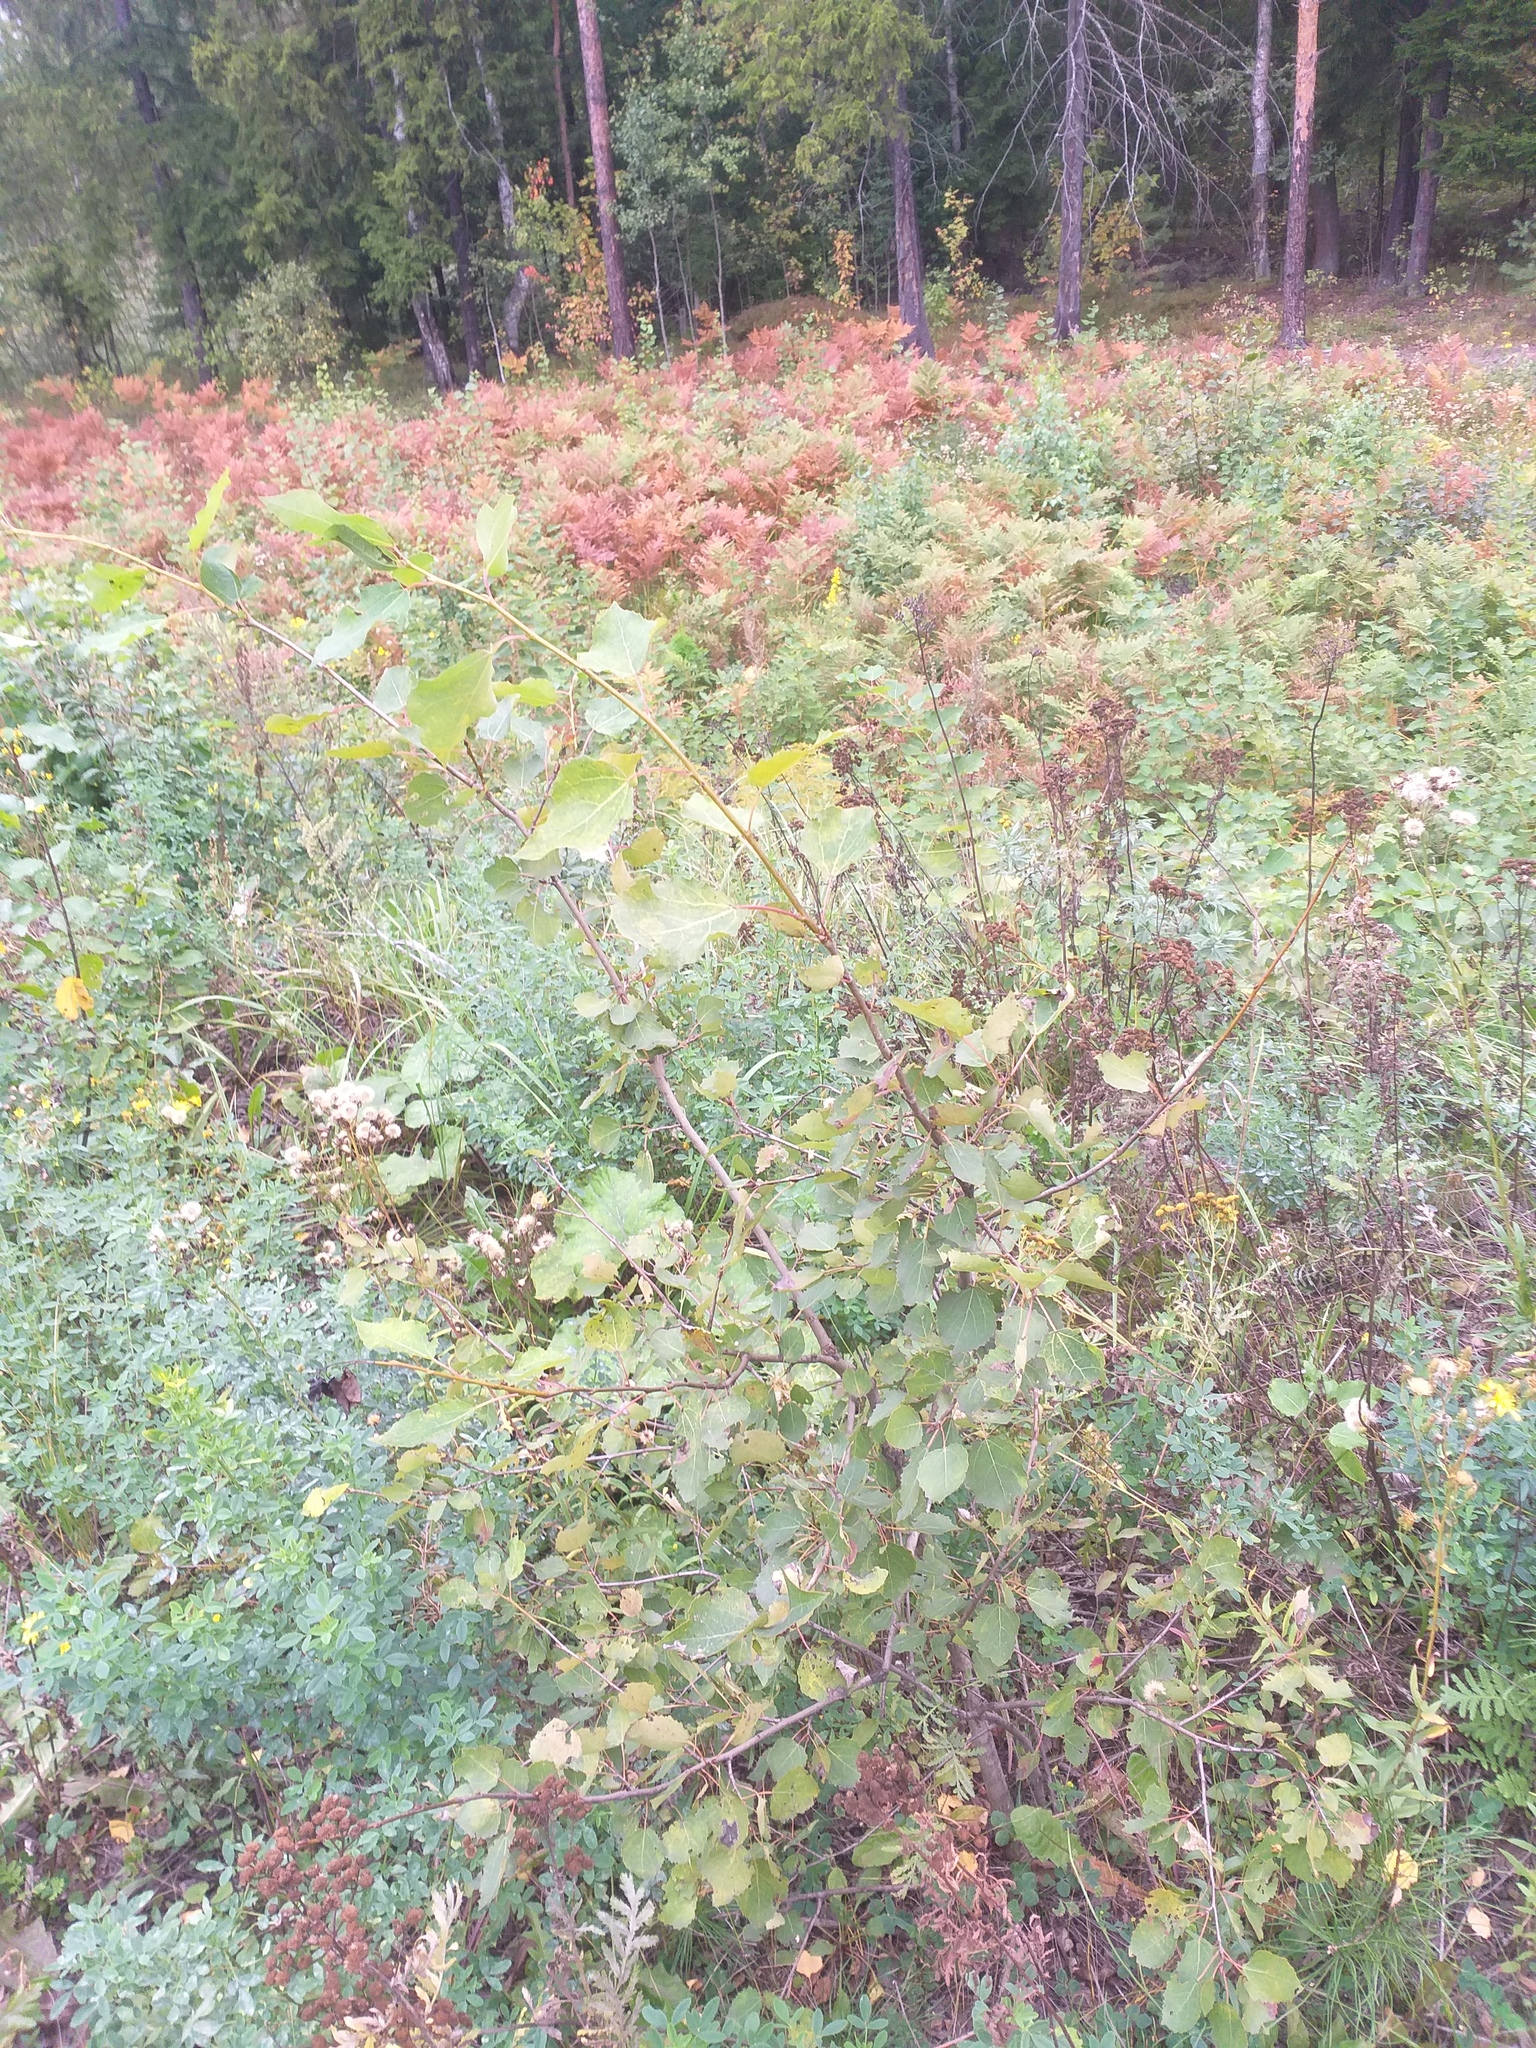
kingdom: Plantae
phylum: Tracheophyta
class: Magnoliopsida
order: Malpighiales
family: Salicaceae
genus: Populus
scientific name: Populus tremula
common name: European aspen
